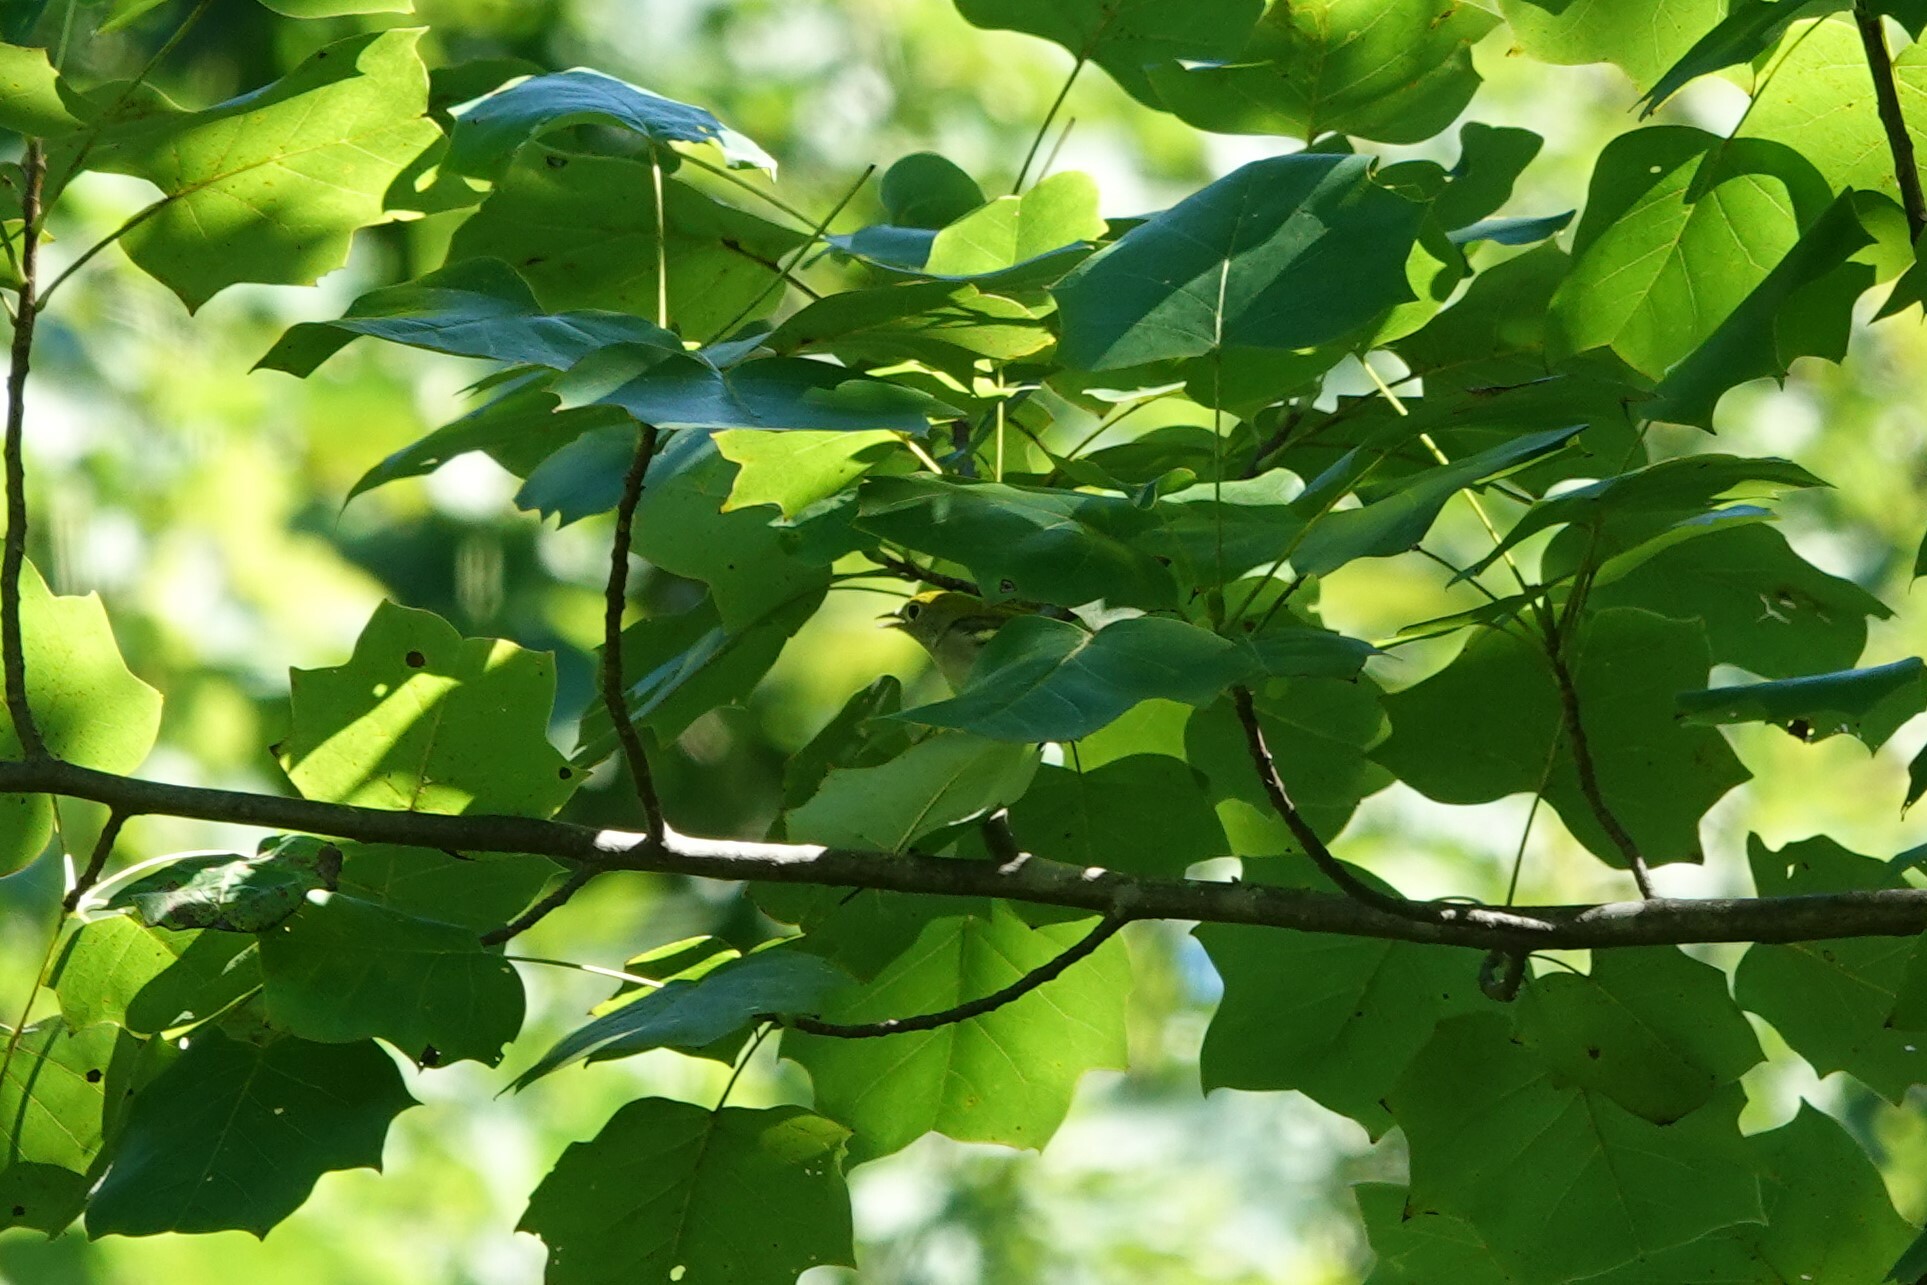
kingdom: Animalia
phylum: Chordata
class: Aves
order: Passeriformes
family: Parulidae
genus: Setophaga
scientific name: Setophaga pensylvanica
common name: Chestnut-sided warbler
